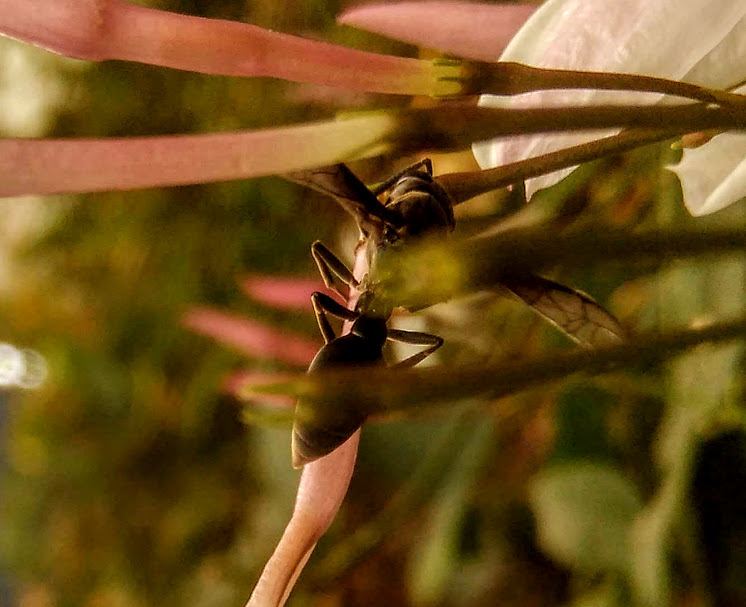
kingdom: Animalia
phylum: Arthropoda
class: Insecta
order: Hymenoptera
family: Eumenidae
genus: Polybia
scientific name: Polybia ignobilis
